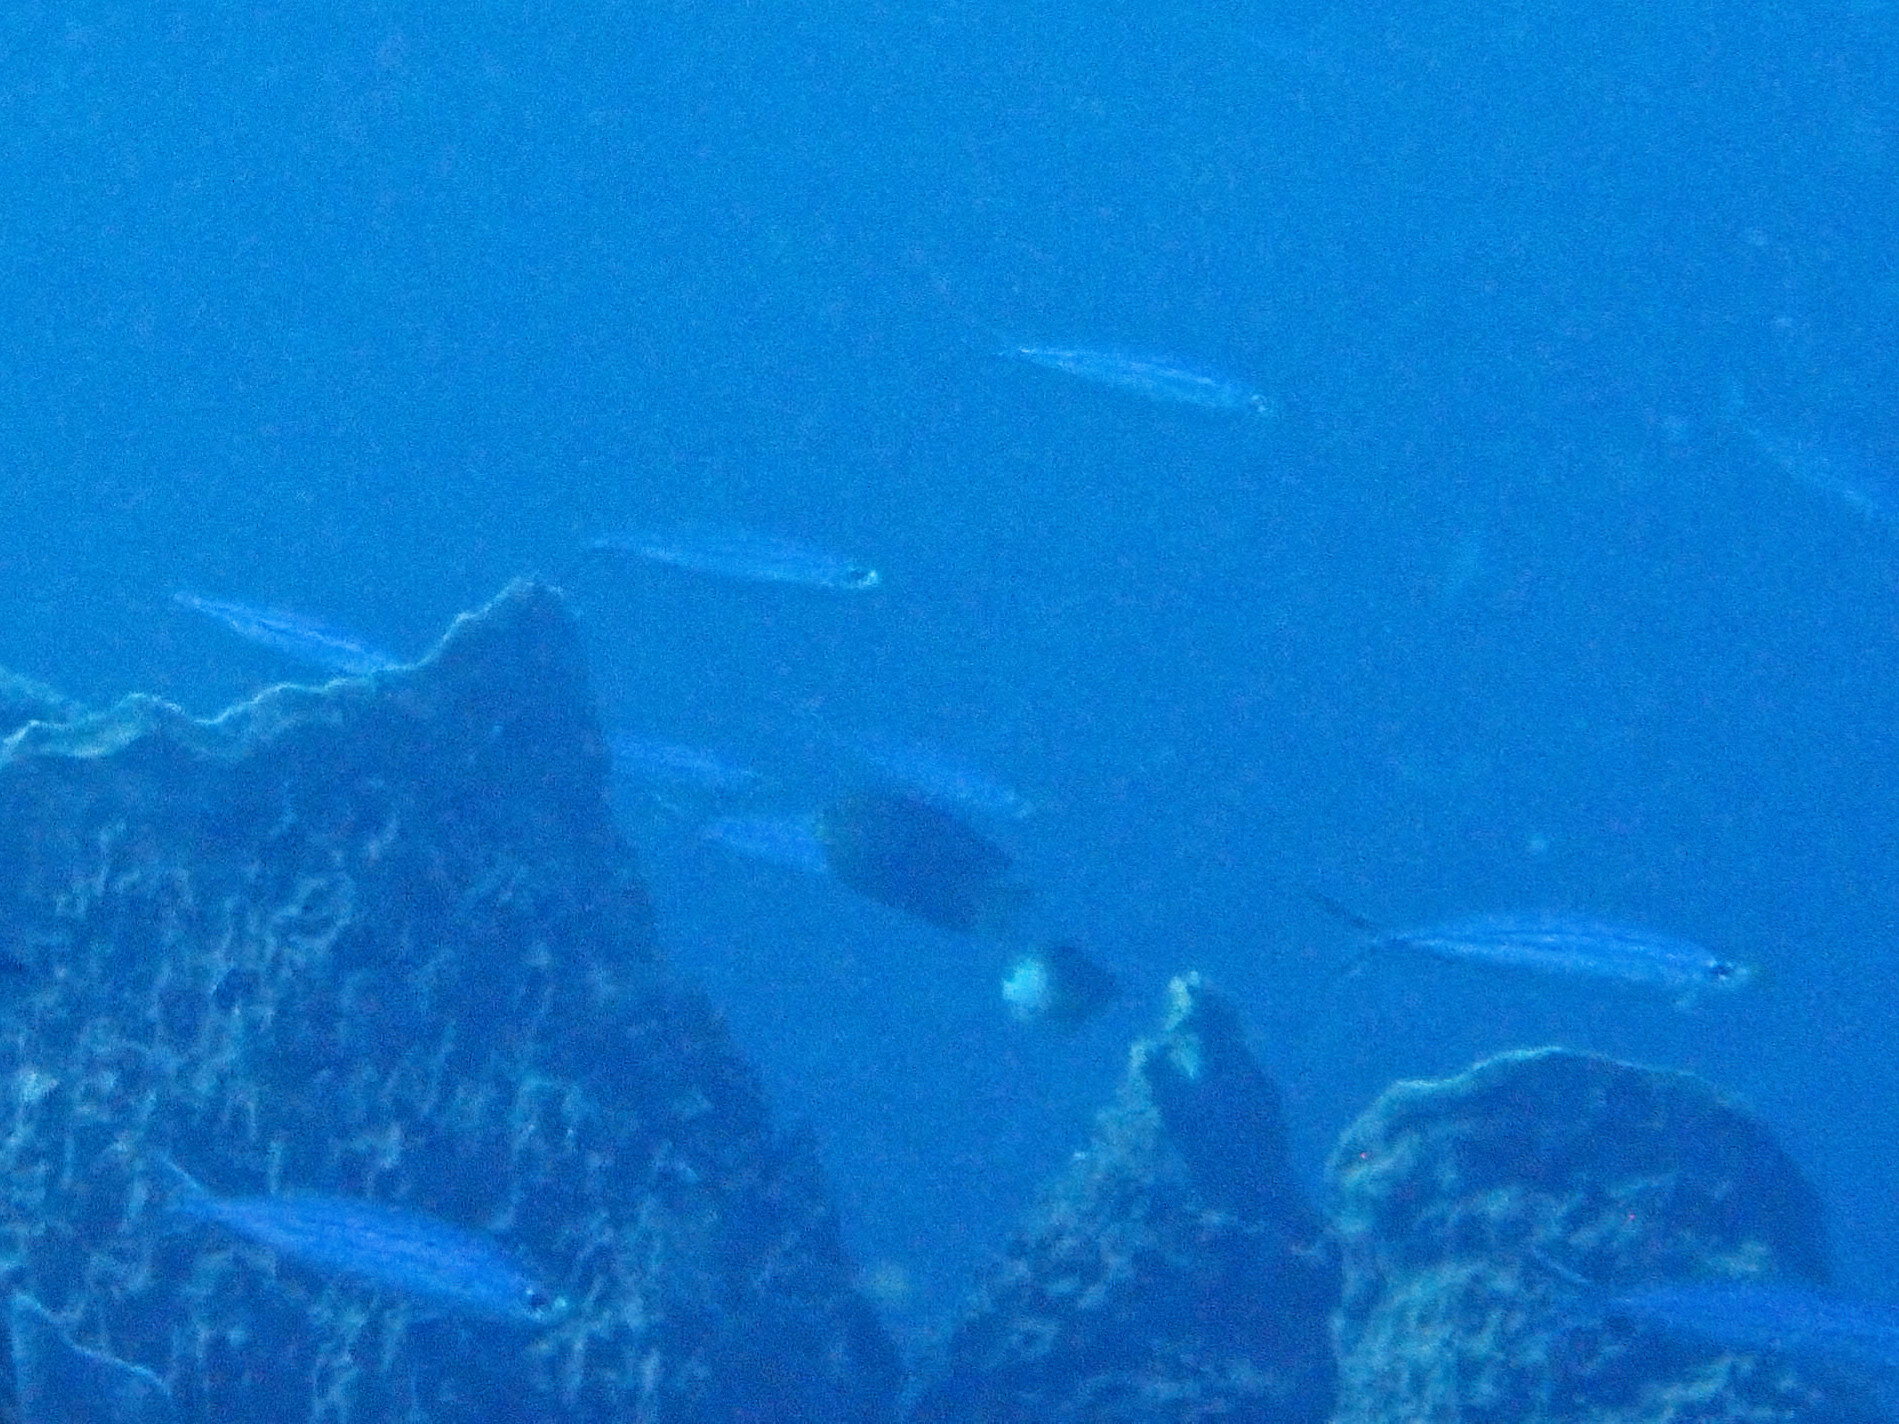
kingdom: Animalia
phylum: Chordata
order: Perciformes
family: Haemulidae
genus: Haemulon
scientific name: Haemulon vittatum
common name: Boga
